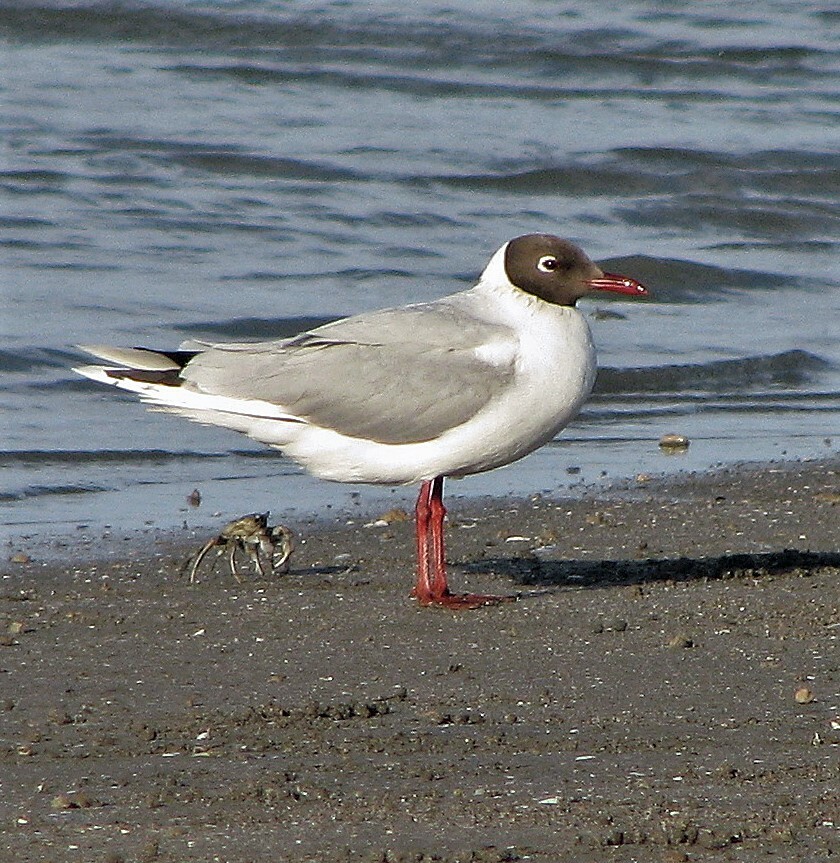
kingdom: Animalia
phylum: Chordata
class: Aves
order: Charadriiformes
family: Laridae
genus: Chroicocephalus
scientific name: Chroicocephalus maculipennis
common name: Brown-hooded gull
